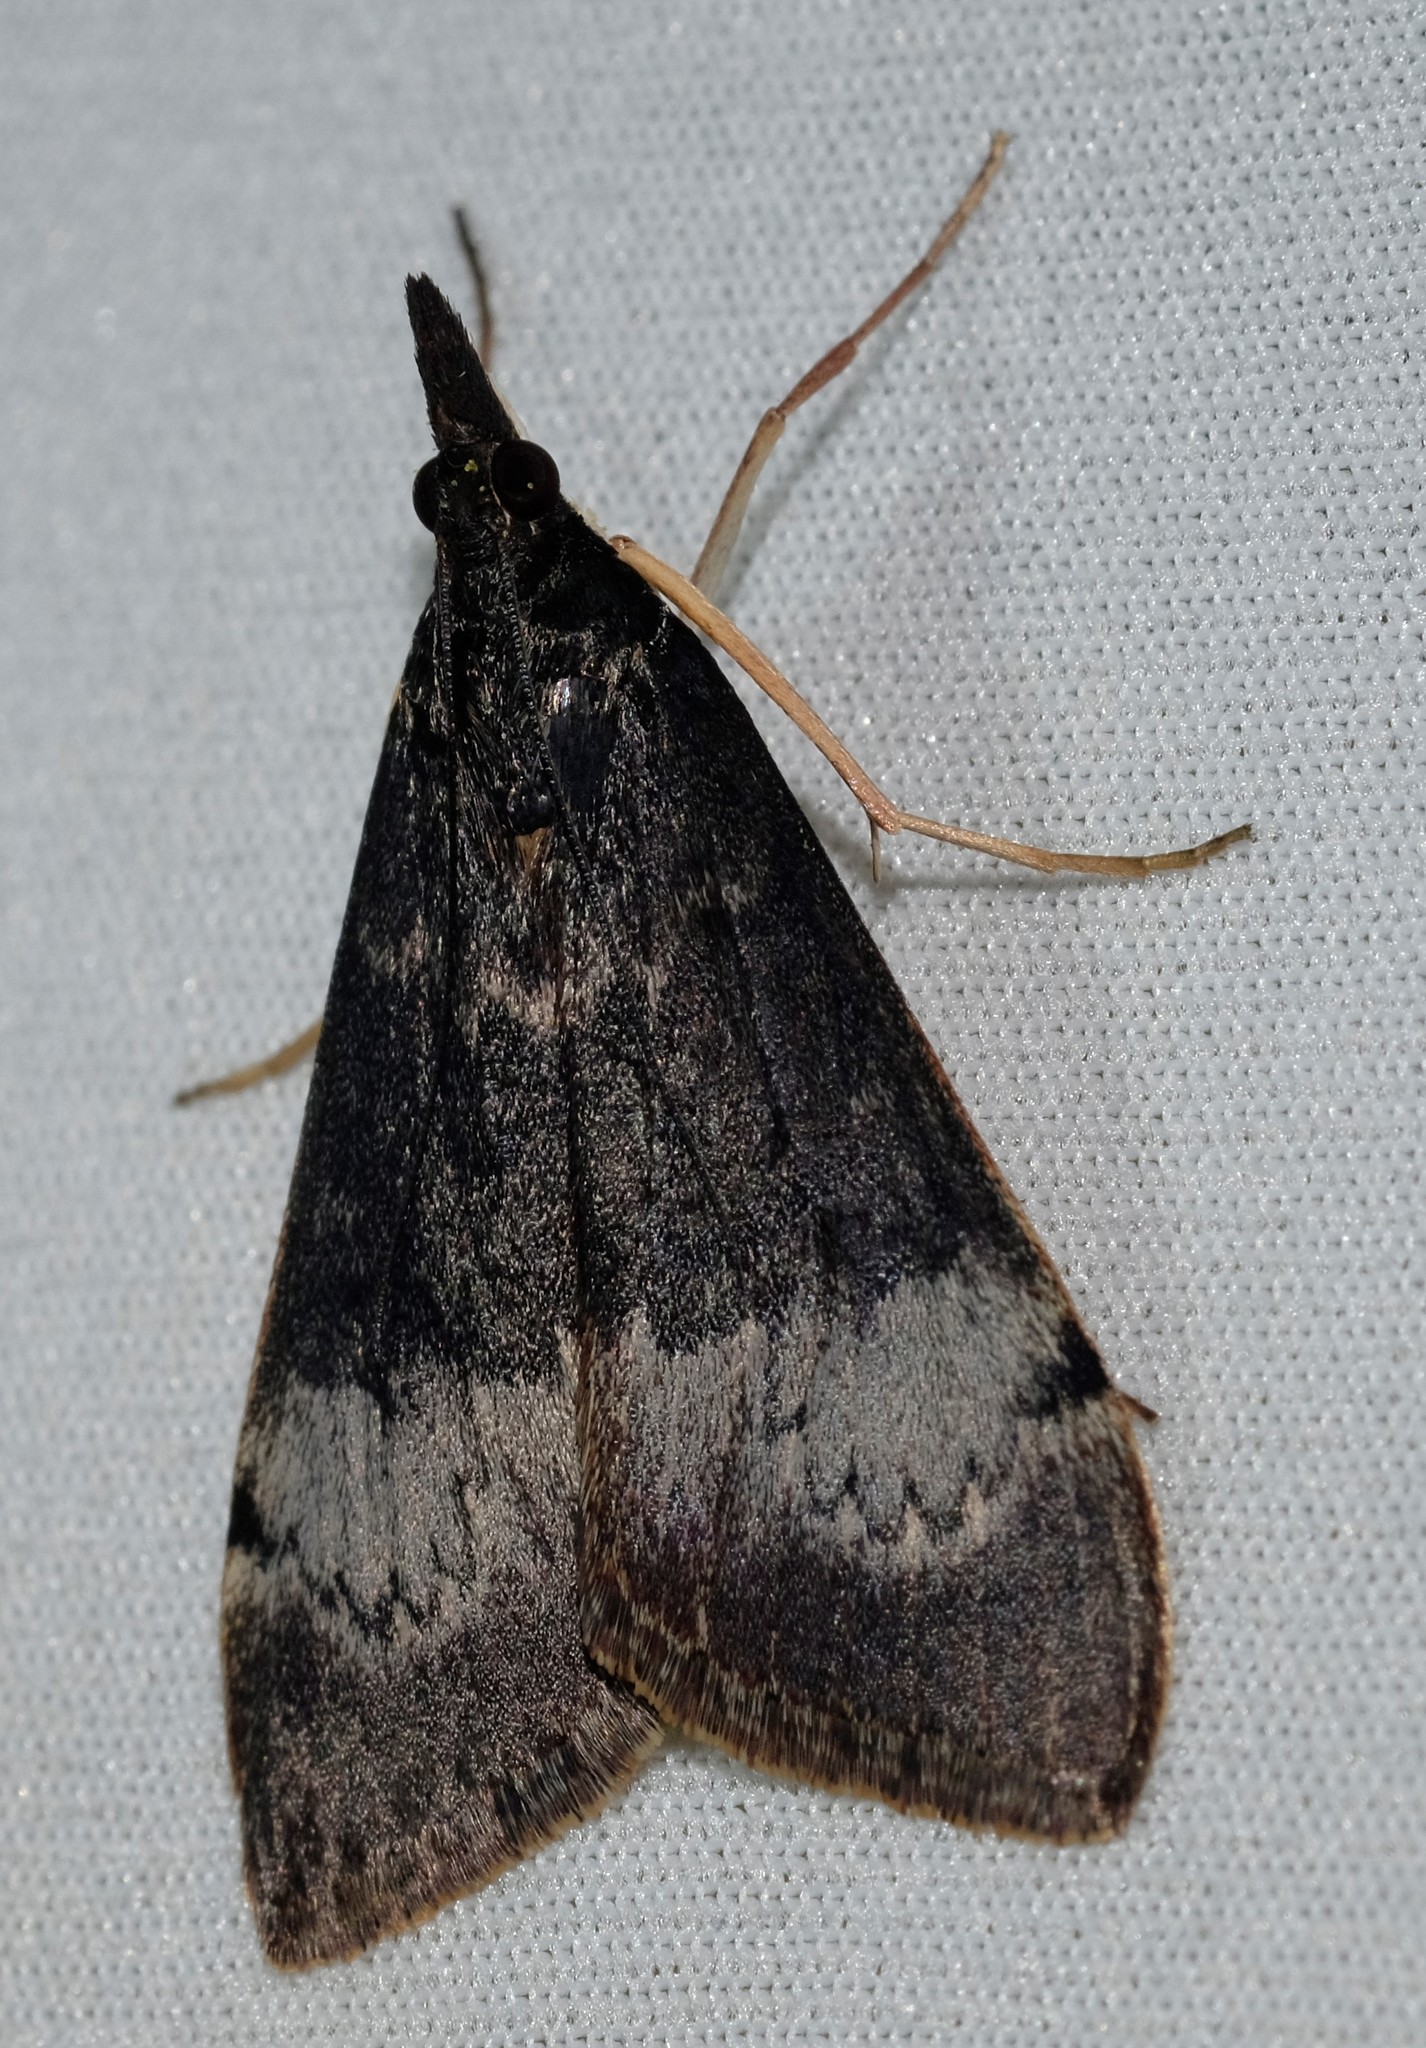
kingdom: Animalia
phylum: Arthropoda
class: Insecta
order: Lepidoptera
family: Crambidae
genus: Uresiphita
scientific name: Uresiphita ornithopteralis
